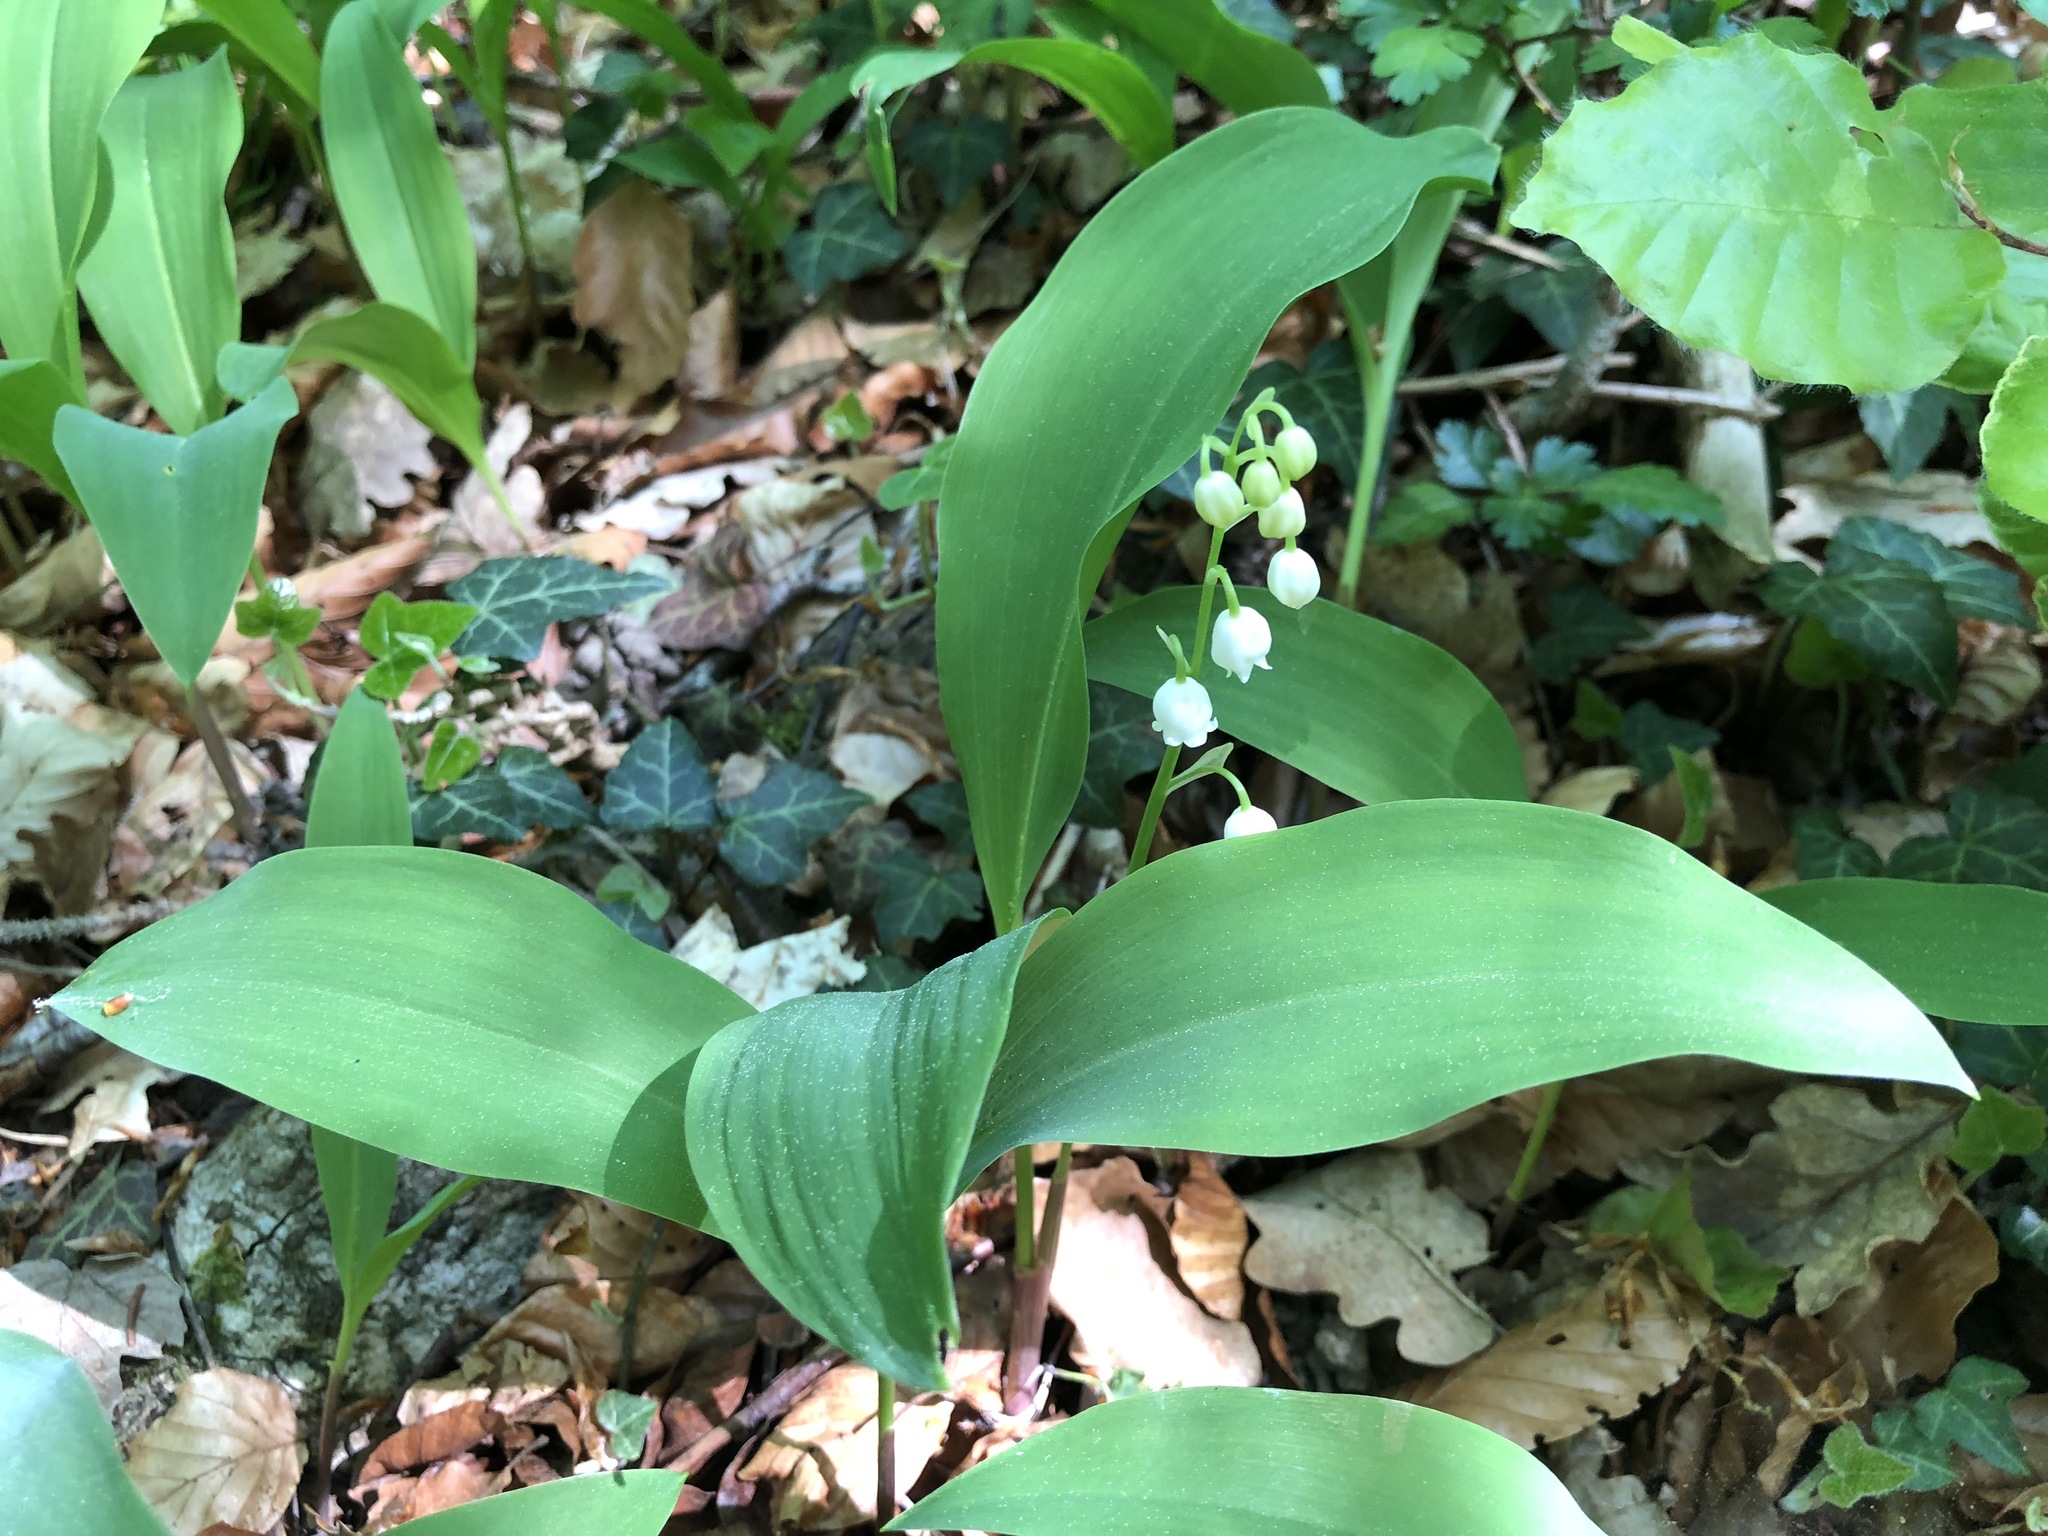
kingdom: Plantae
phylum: Tracheophyta
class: Liliopsida
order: Asparagales
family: Asparagaceae
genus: Convallaria
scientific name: Convallaria majalis
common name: Lily-of-the-valley
